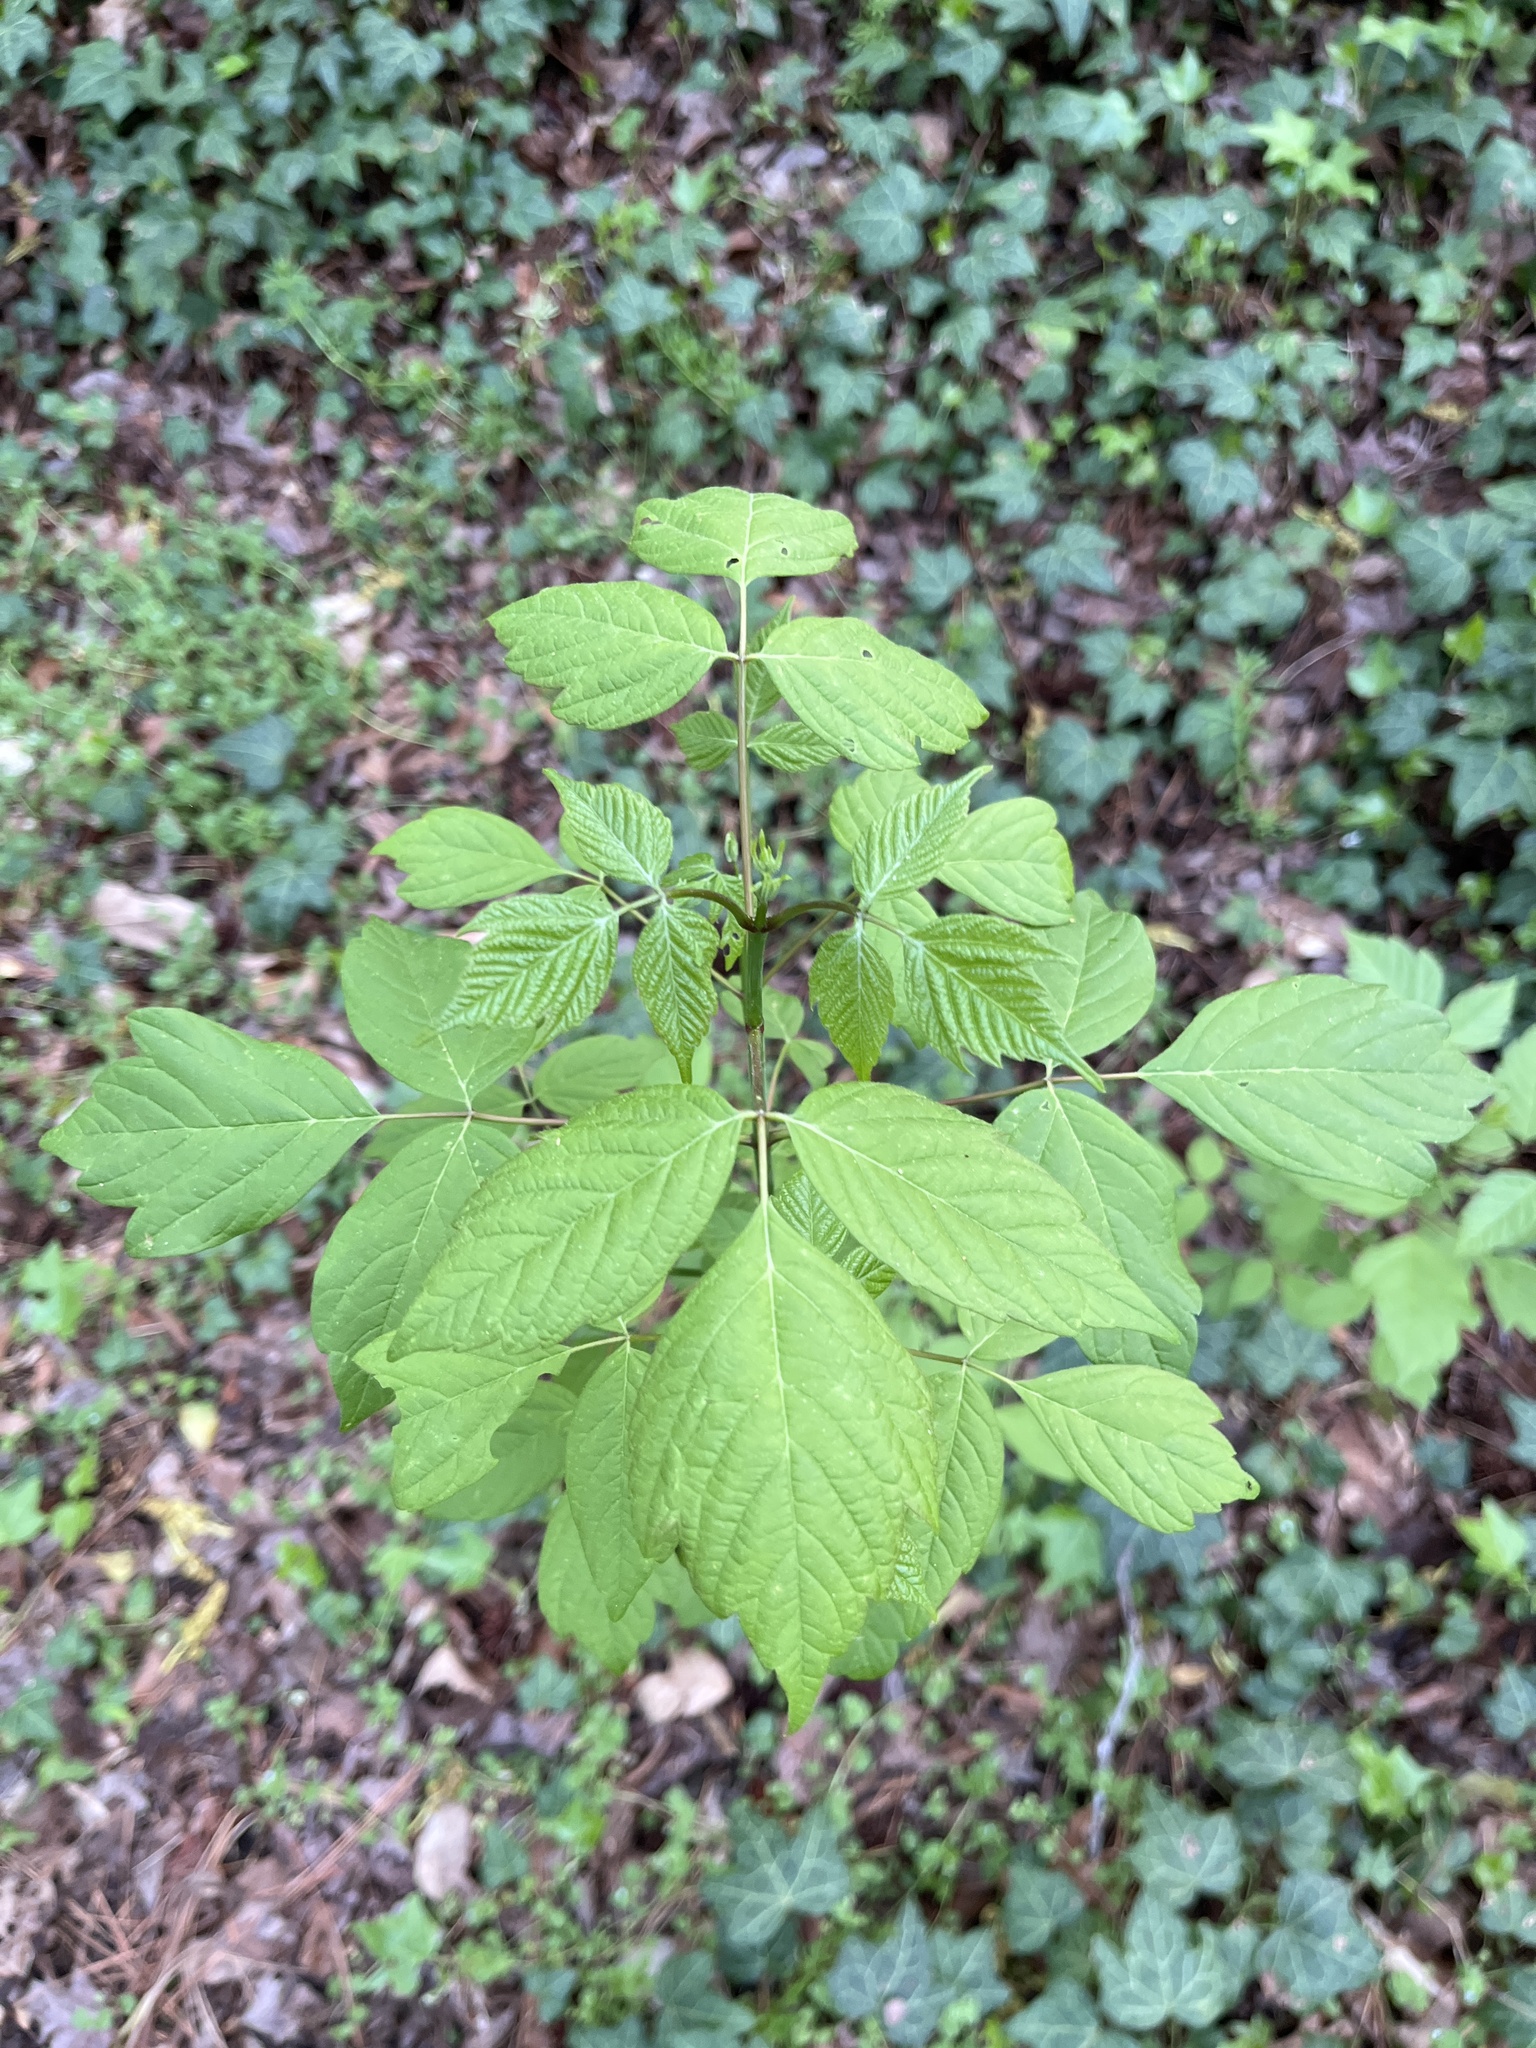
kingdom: Plantae
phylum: Tracheophyta
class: Magnoliopsida
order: Sapindales
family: Sapindaceae
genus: Acer
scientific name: Acer negundo
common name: Ashleaf maple
